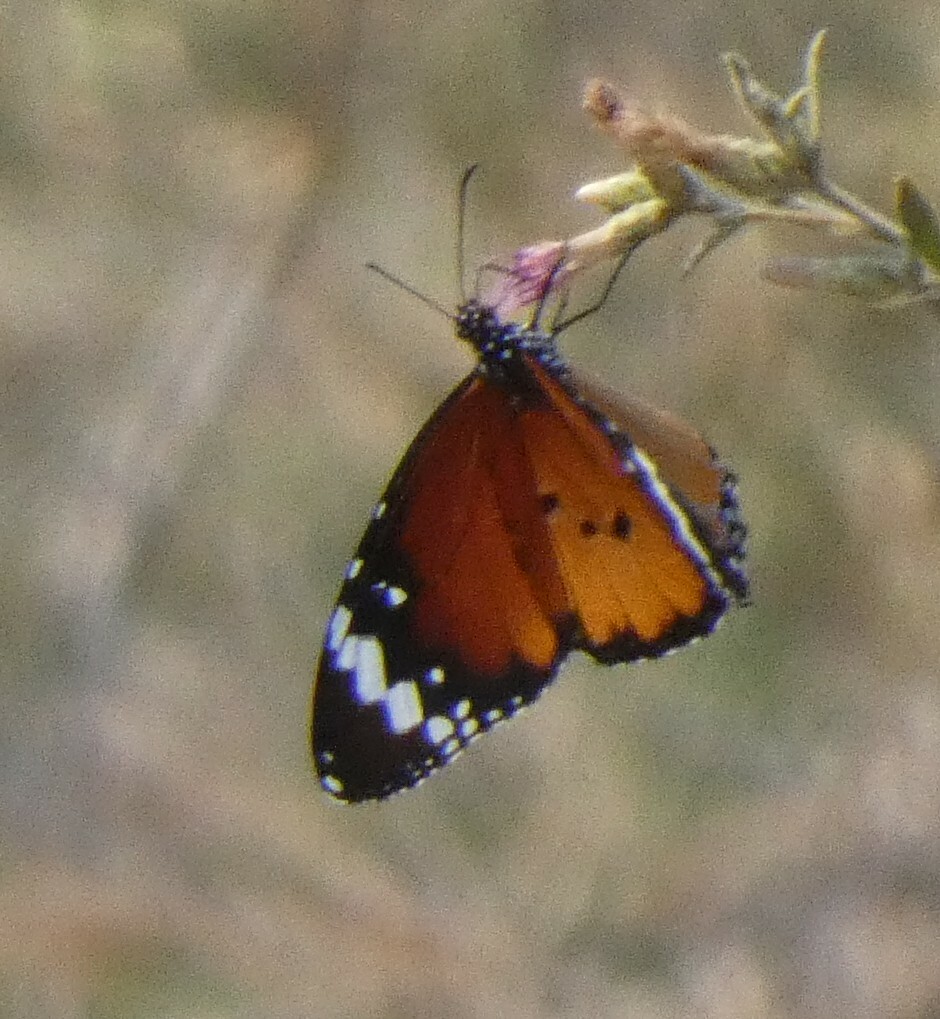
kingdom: Animalia
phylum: Arthropoda
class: Insecta
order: Lepidoptera
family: Nymphalidae
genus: Danaus
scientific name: Danaus chrysippus
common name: Plain tiger
